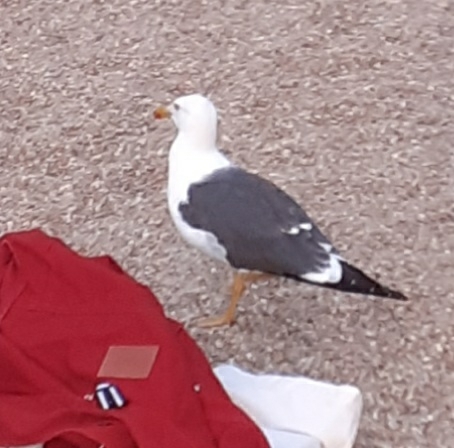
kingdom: Animalia
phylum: Chordata
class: Aves
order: Charadriiformes
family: Laridae
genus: Larus
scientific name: Larus fuscus
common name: Lesser black-backed gull
